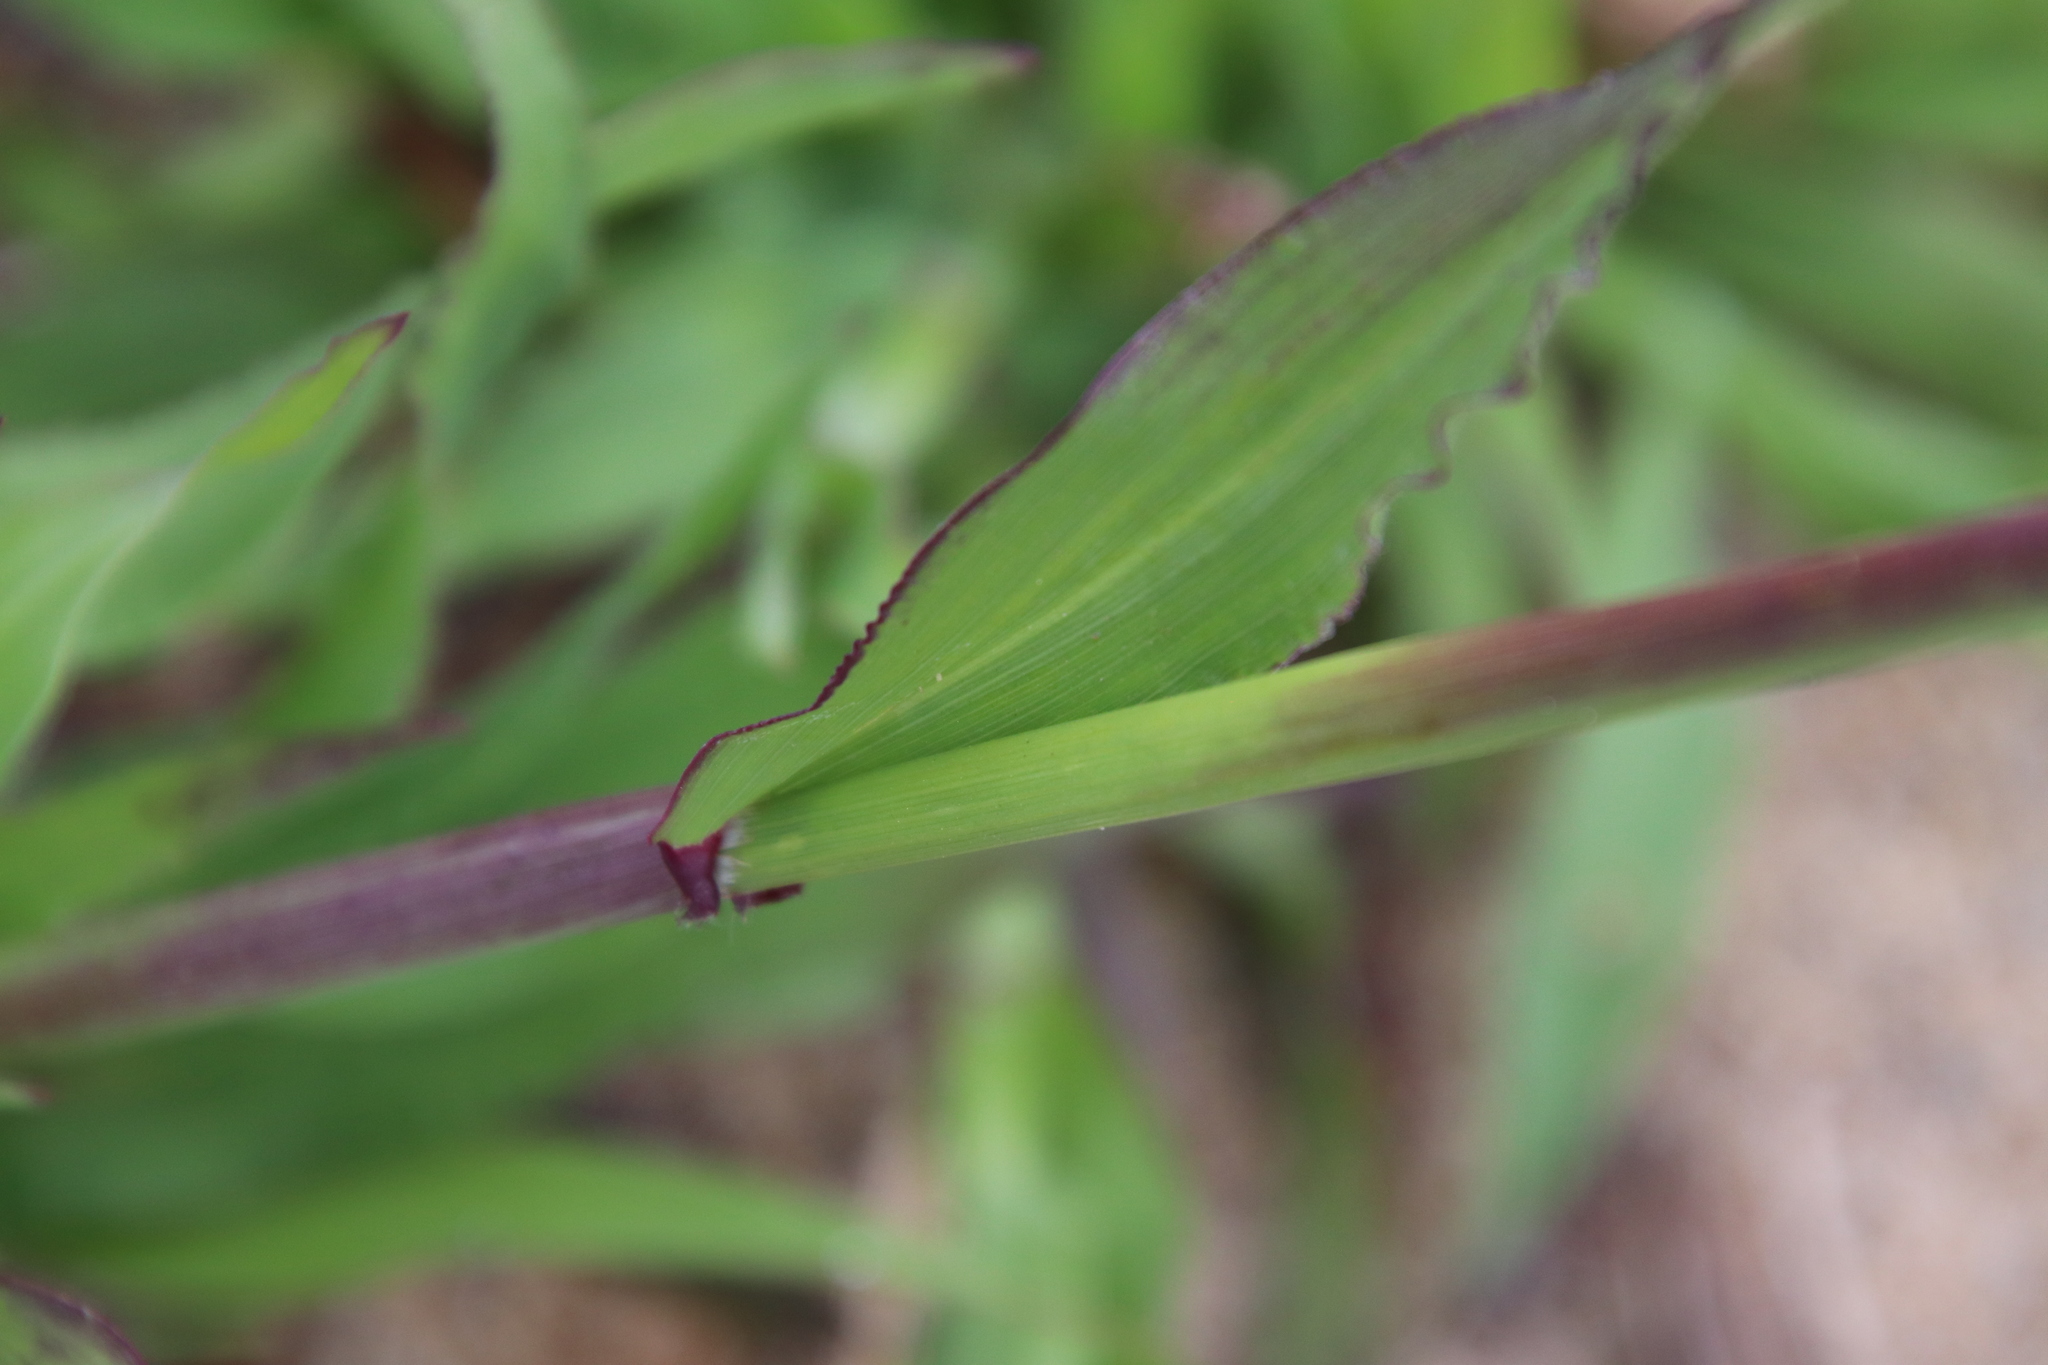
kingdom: Plantae
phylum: Tracheophyta
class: Liliopsida
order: Poales
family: Poaceae
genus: Ehrharta
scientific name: Ehrharta longiflora
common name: Longflowered veldtgrass
